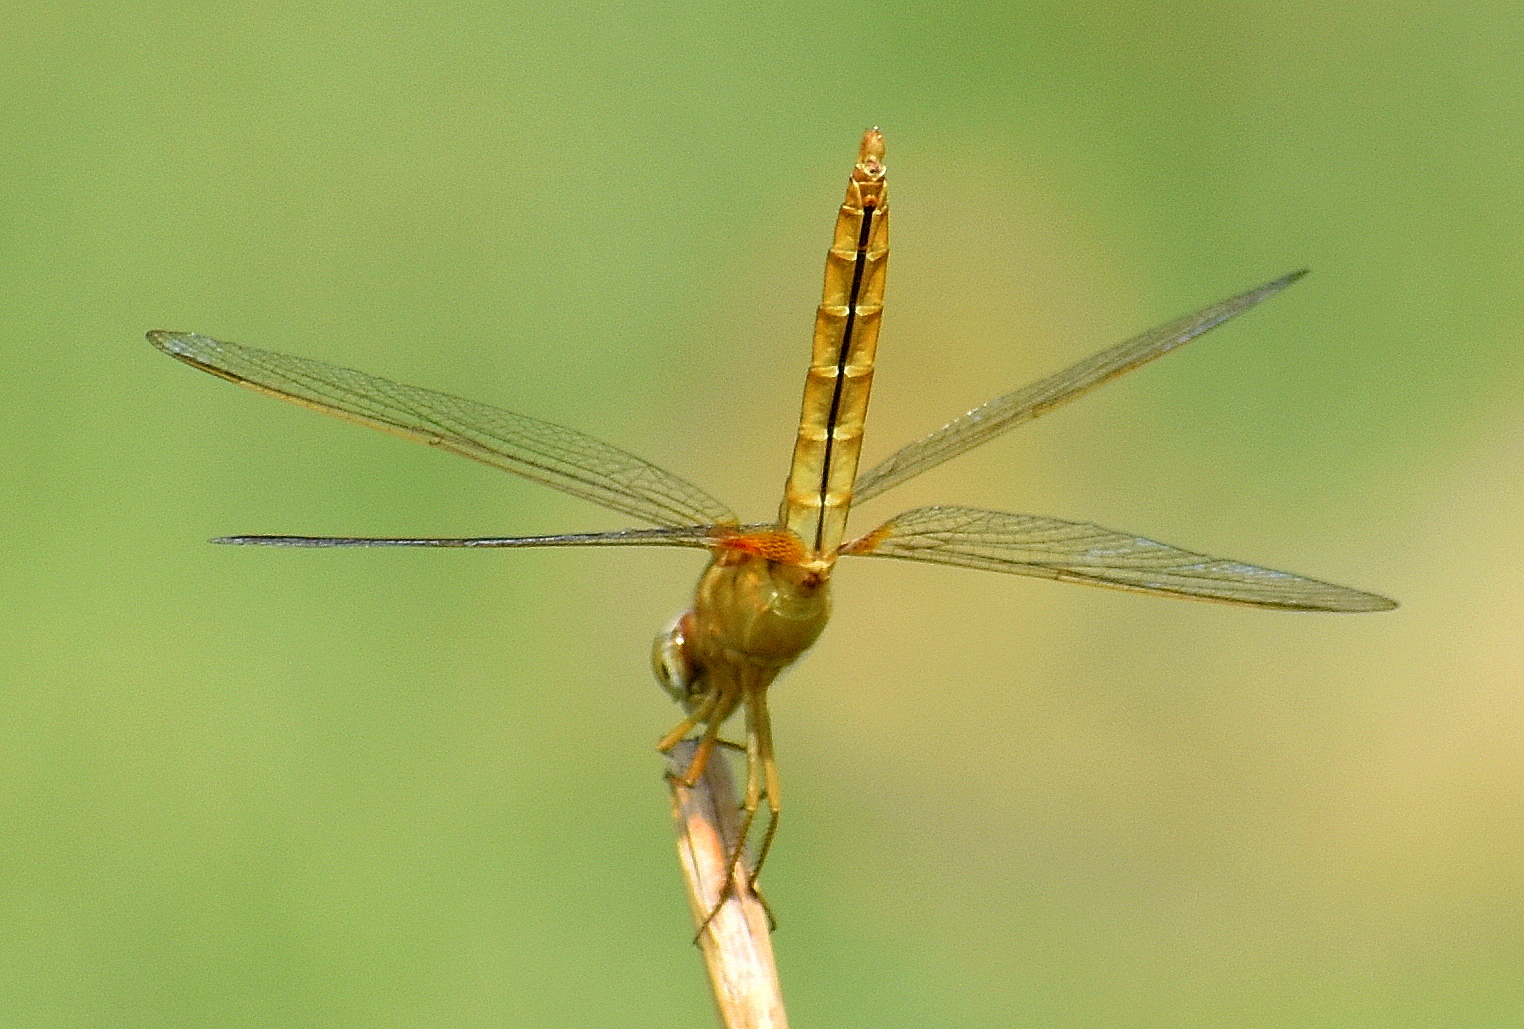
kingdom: Animalia
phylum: Arthropoda
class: Insecta
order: Odonata
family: Libellulidae
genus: Crocothemis
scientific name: Crocothemis servilia
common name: Scarlet skimmer
